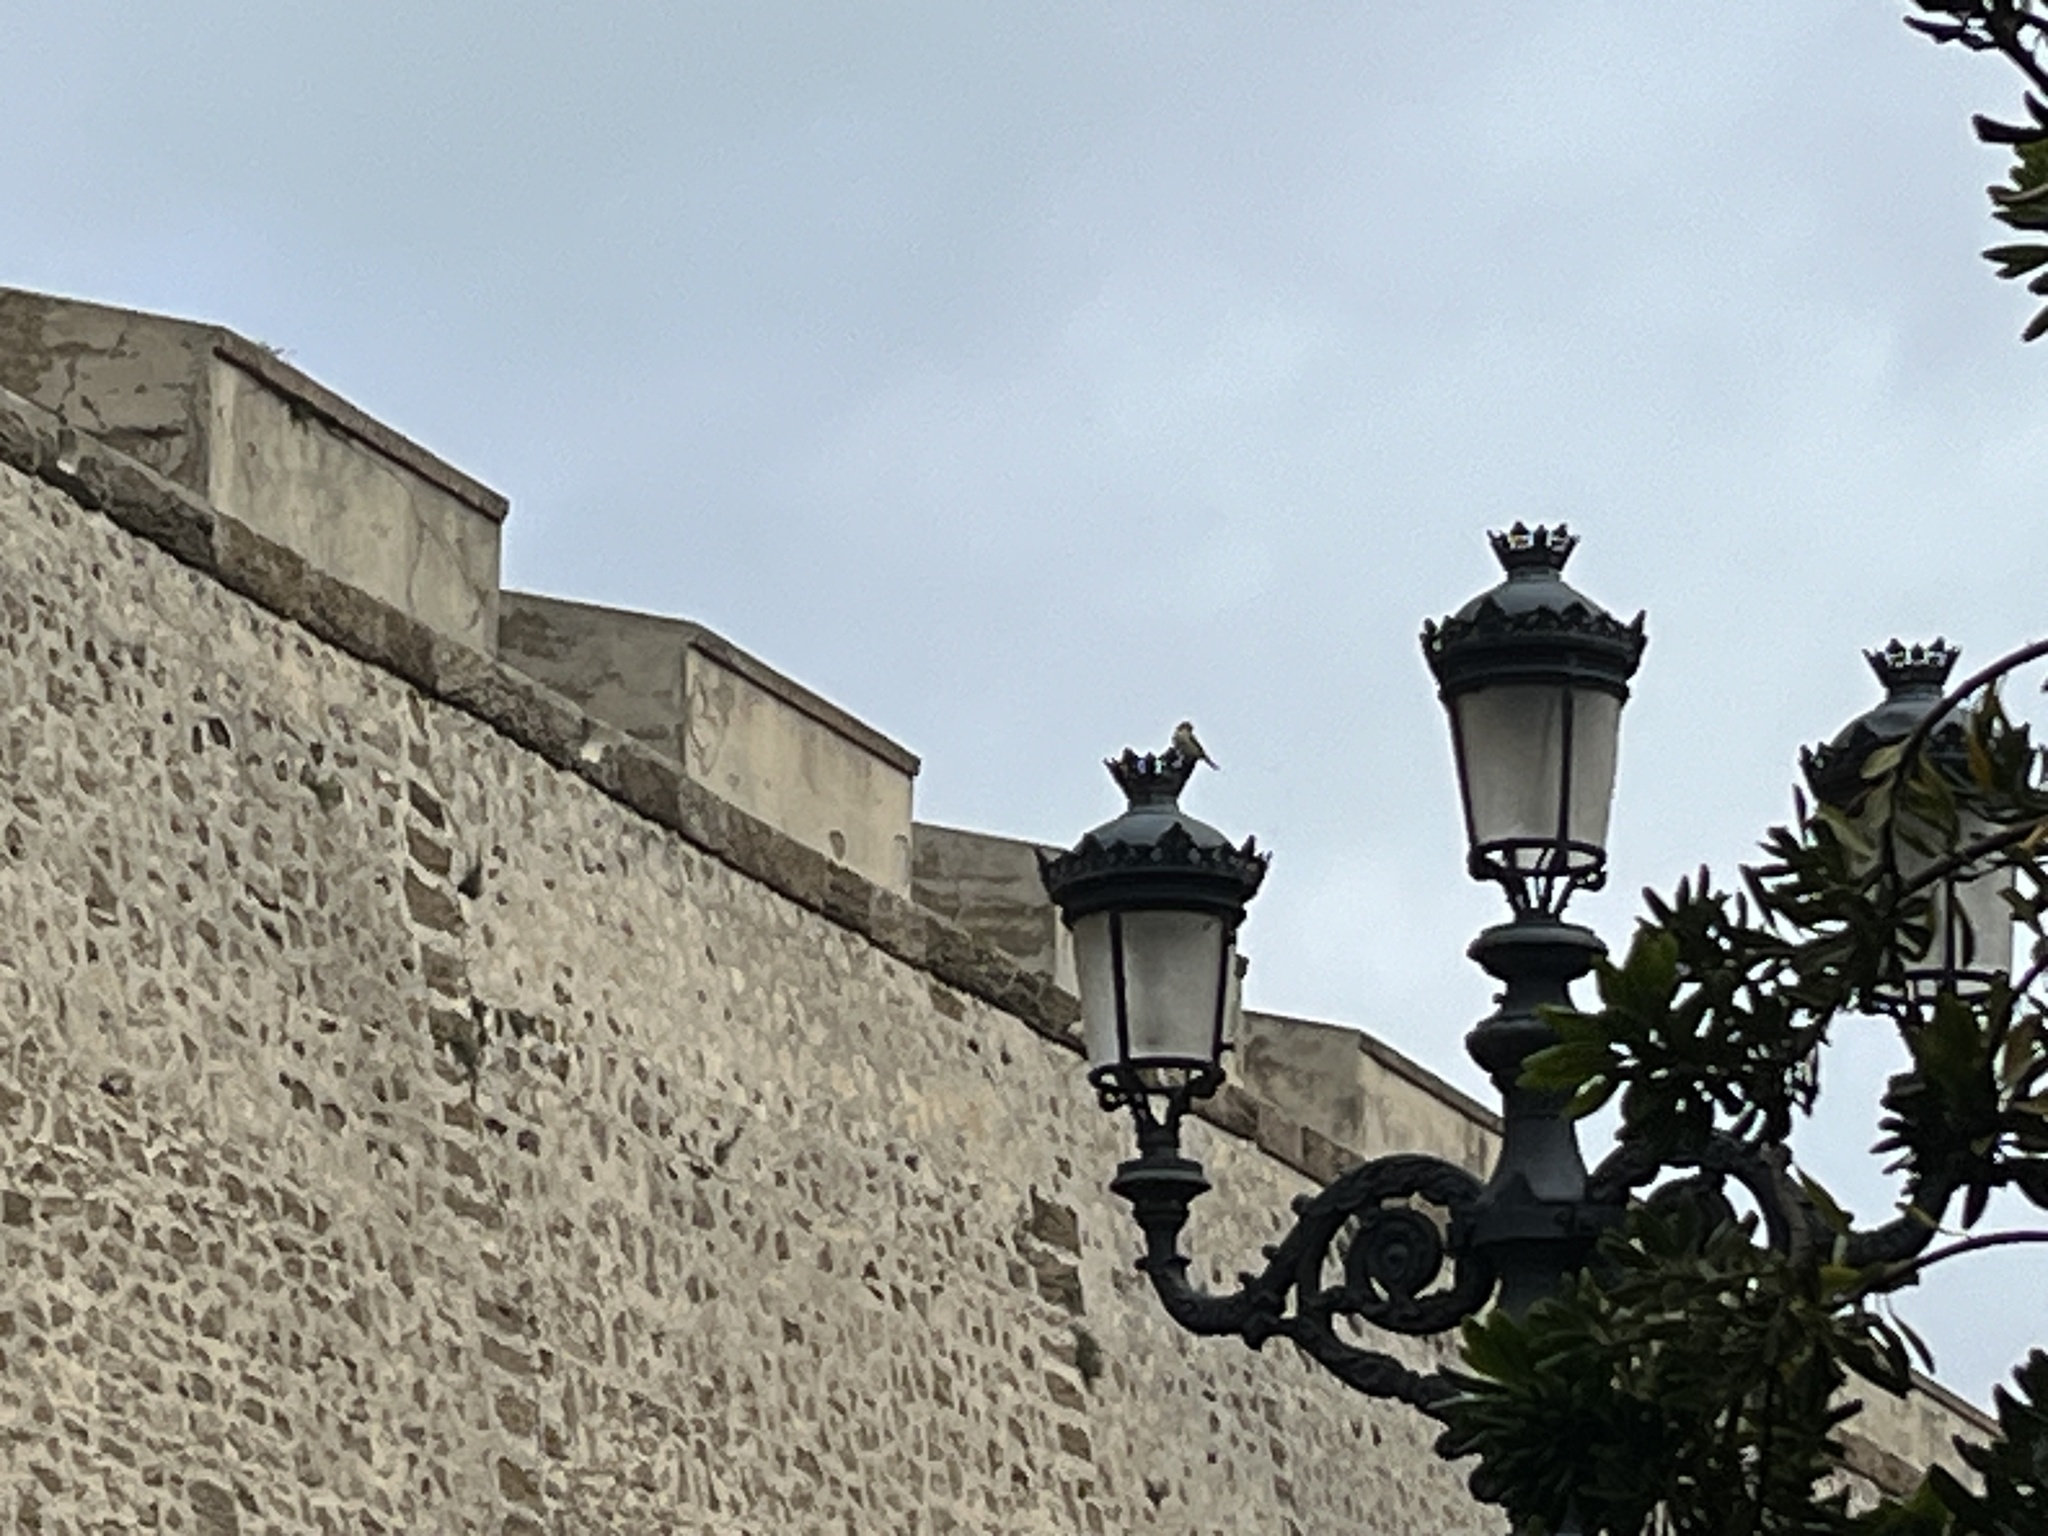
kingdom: Animalia
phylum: Chordata
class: Aves
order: Passeriformes
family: Laniidae
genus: Lanius
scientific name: Lanius senator
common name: Woodchat shrike
